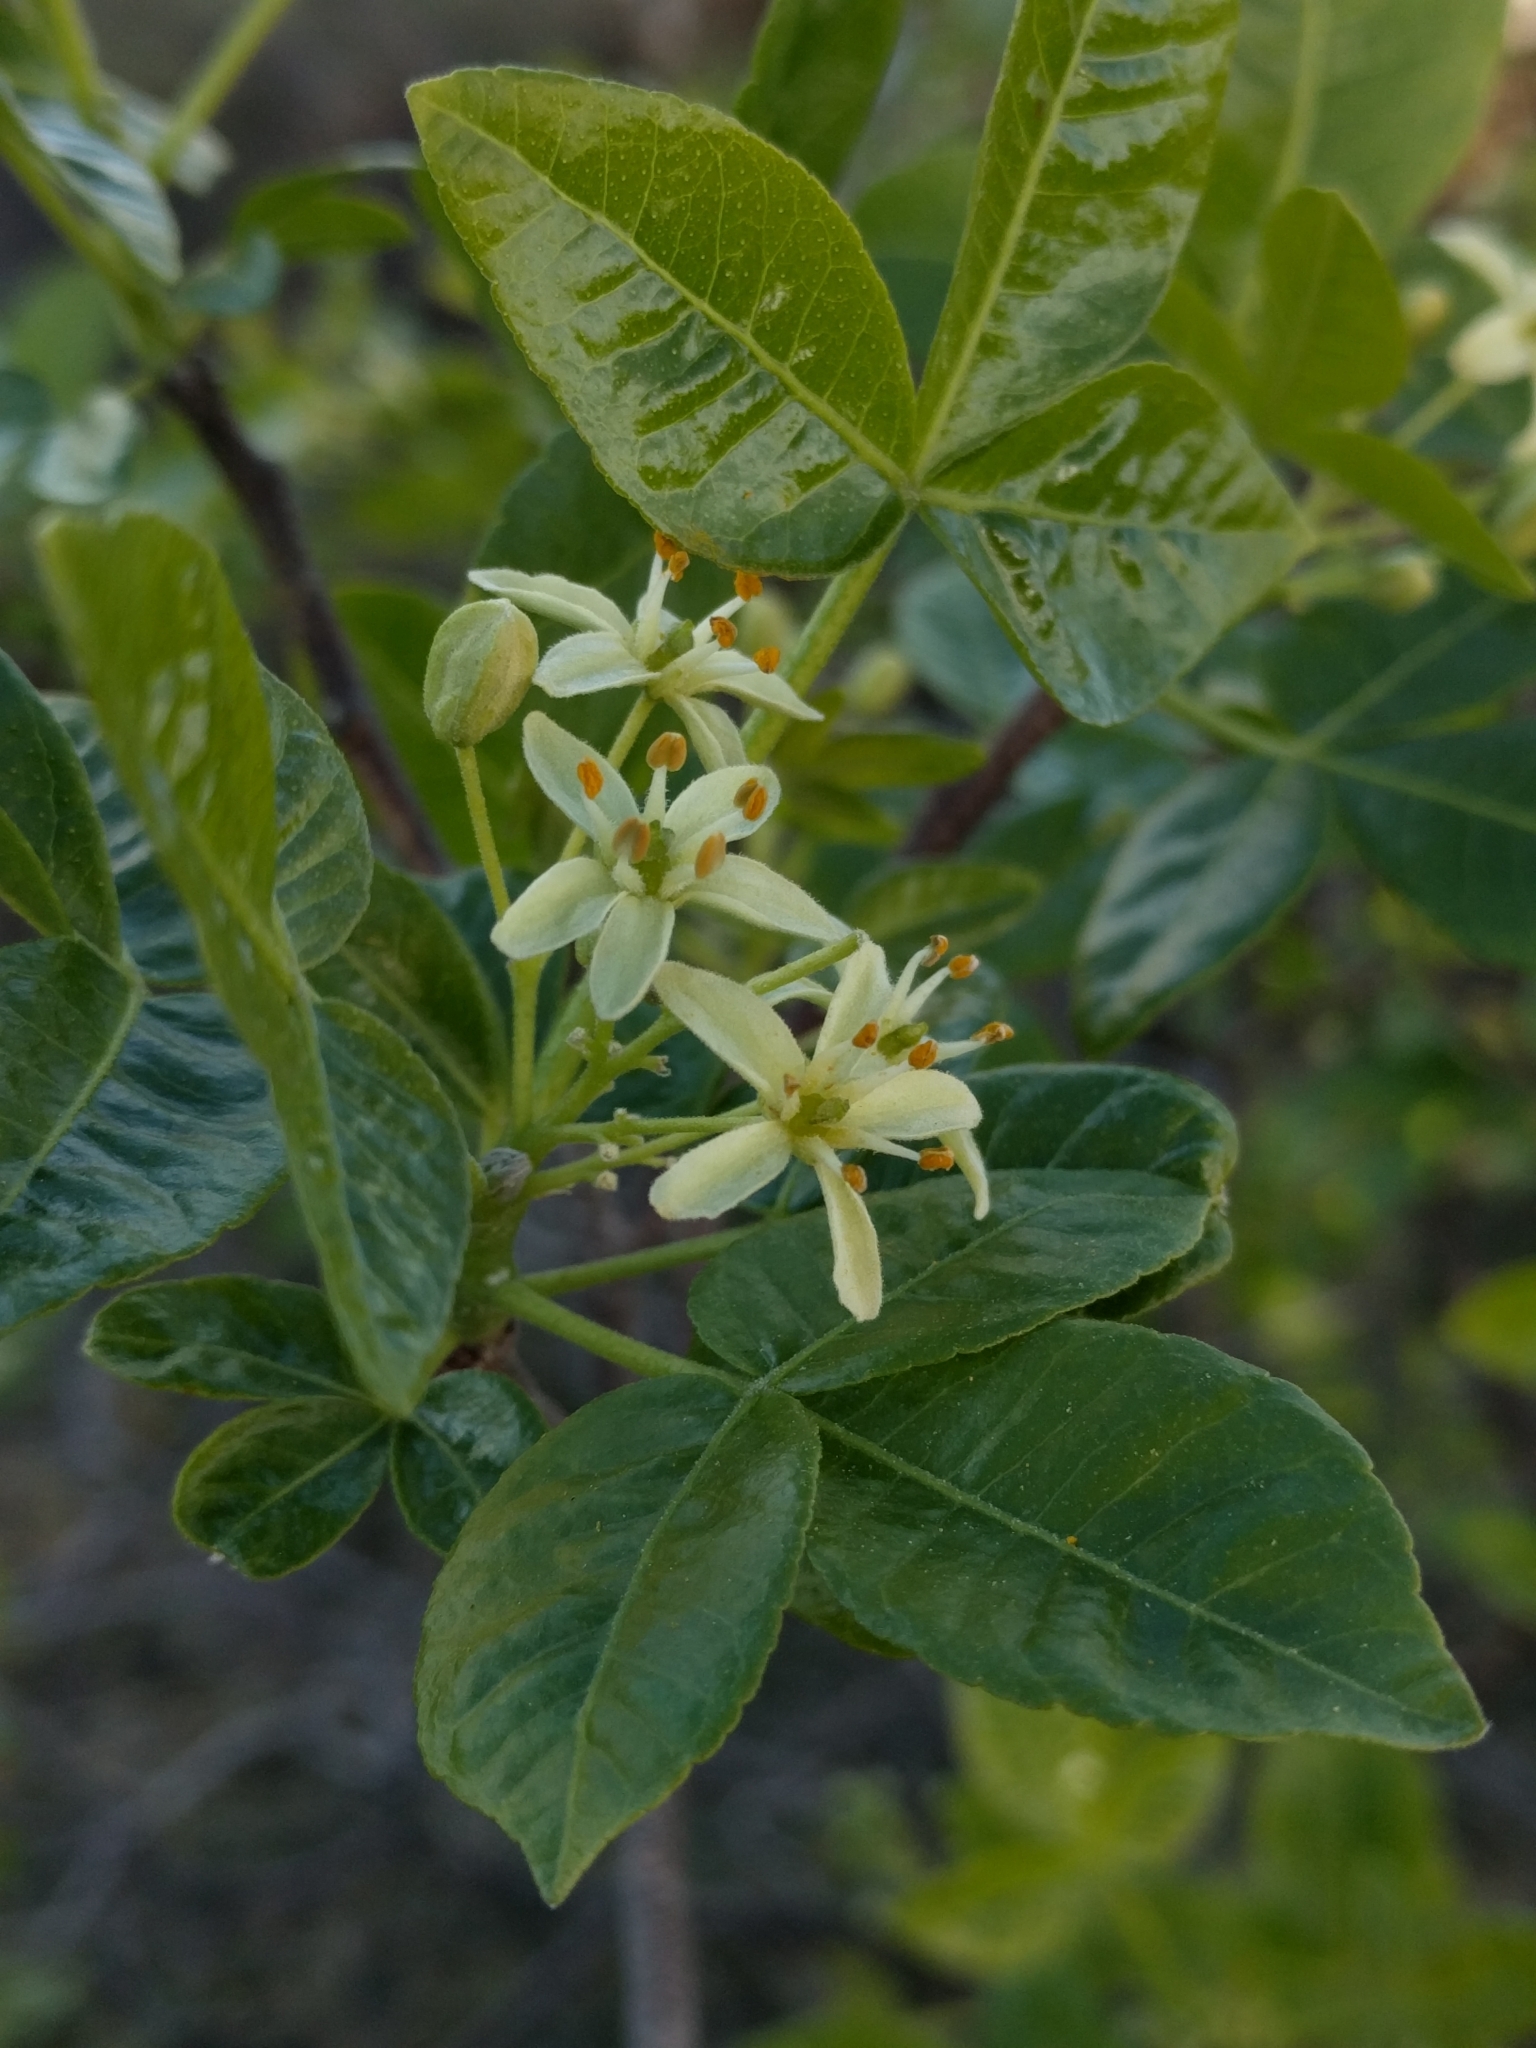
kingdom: Plantae
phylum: Tracheophyta
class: Magnoliopsida
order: Sapindales
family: Rutaceae
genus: Ptelea
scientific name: Ptelea crenulata
